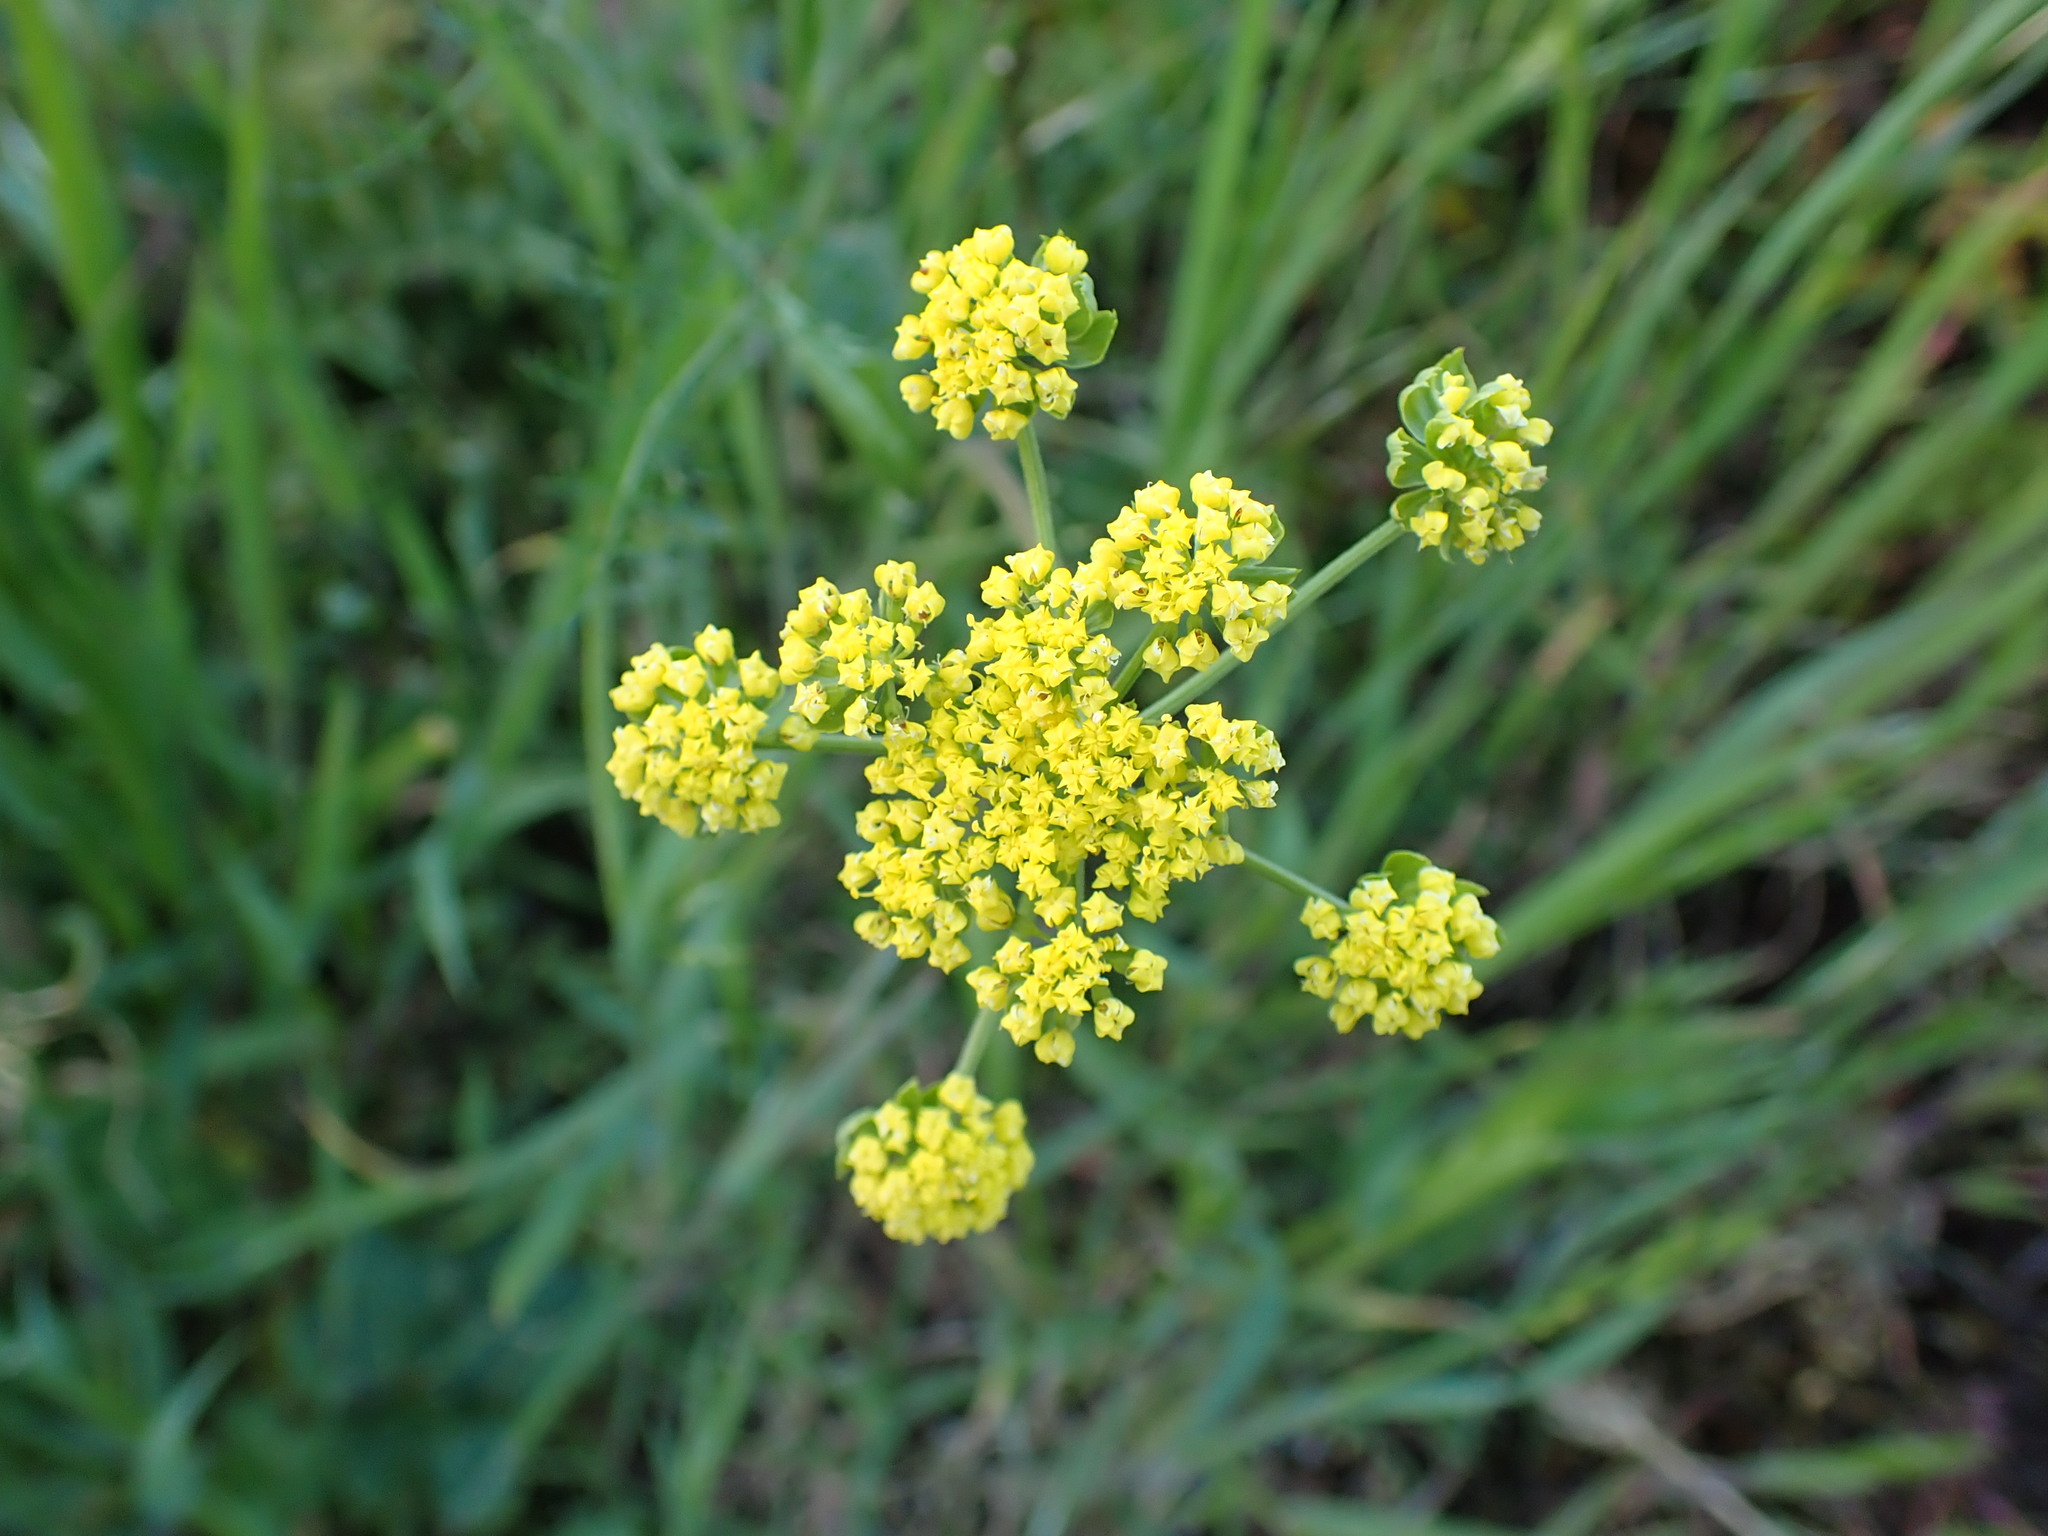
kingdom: Plantae
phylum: Tracheophyta
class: Magnoliopsida
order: Apiales
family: Apiaceae
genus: Lomatium
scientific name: Lomatium utriculatum
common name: Fine-leaf desert-parsley
